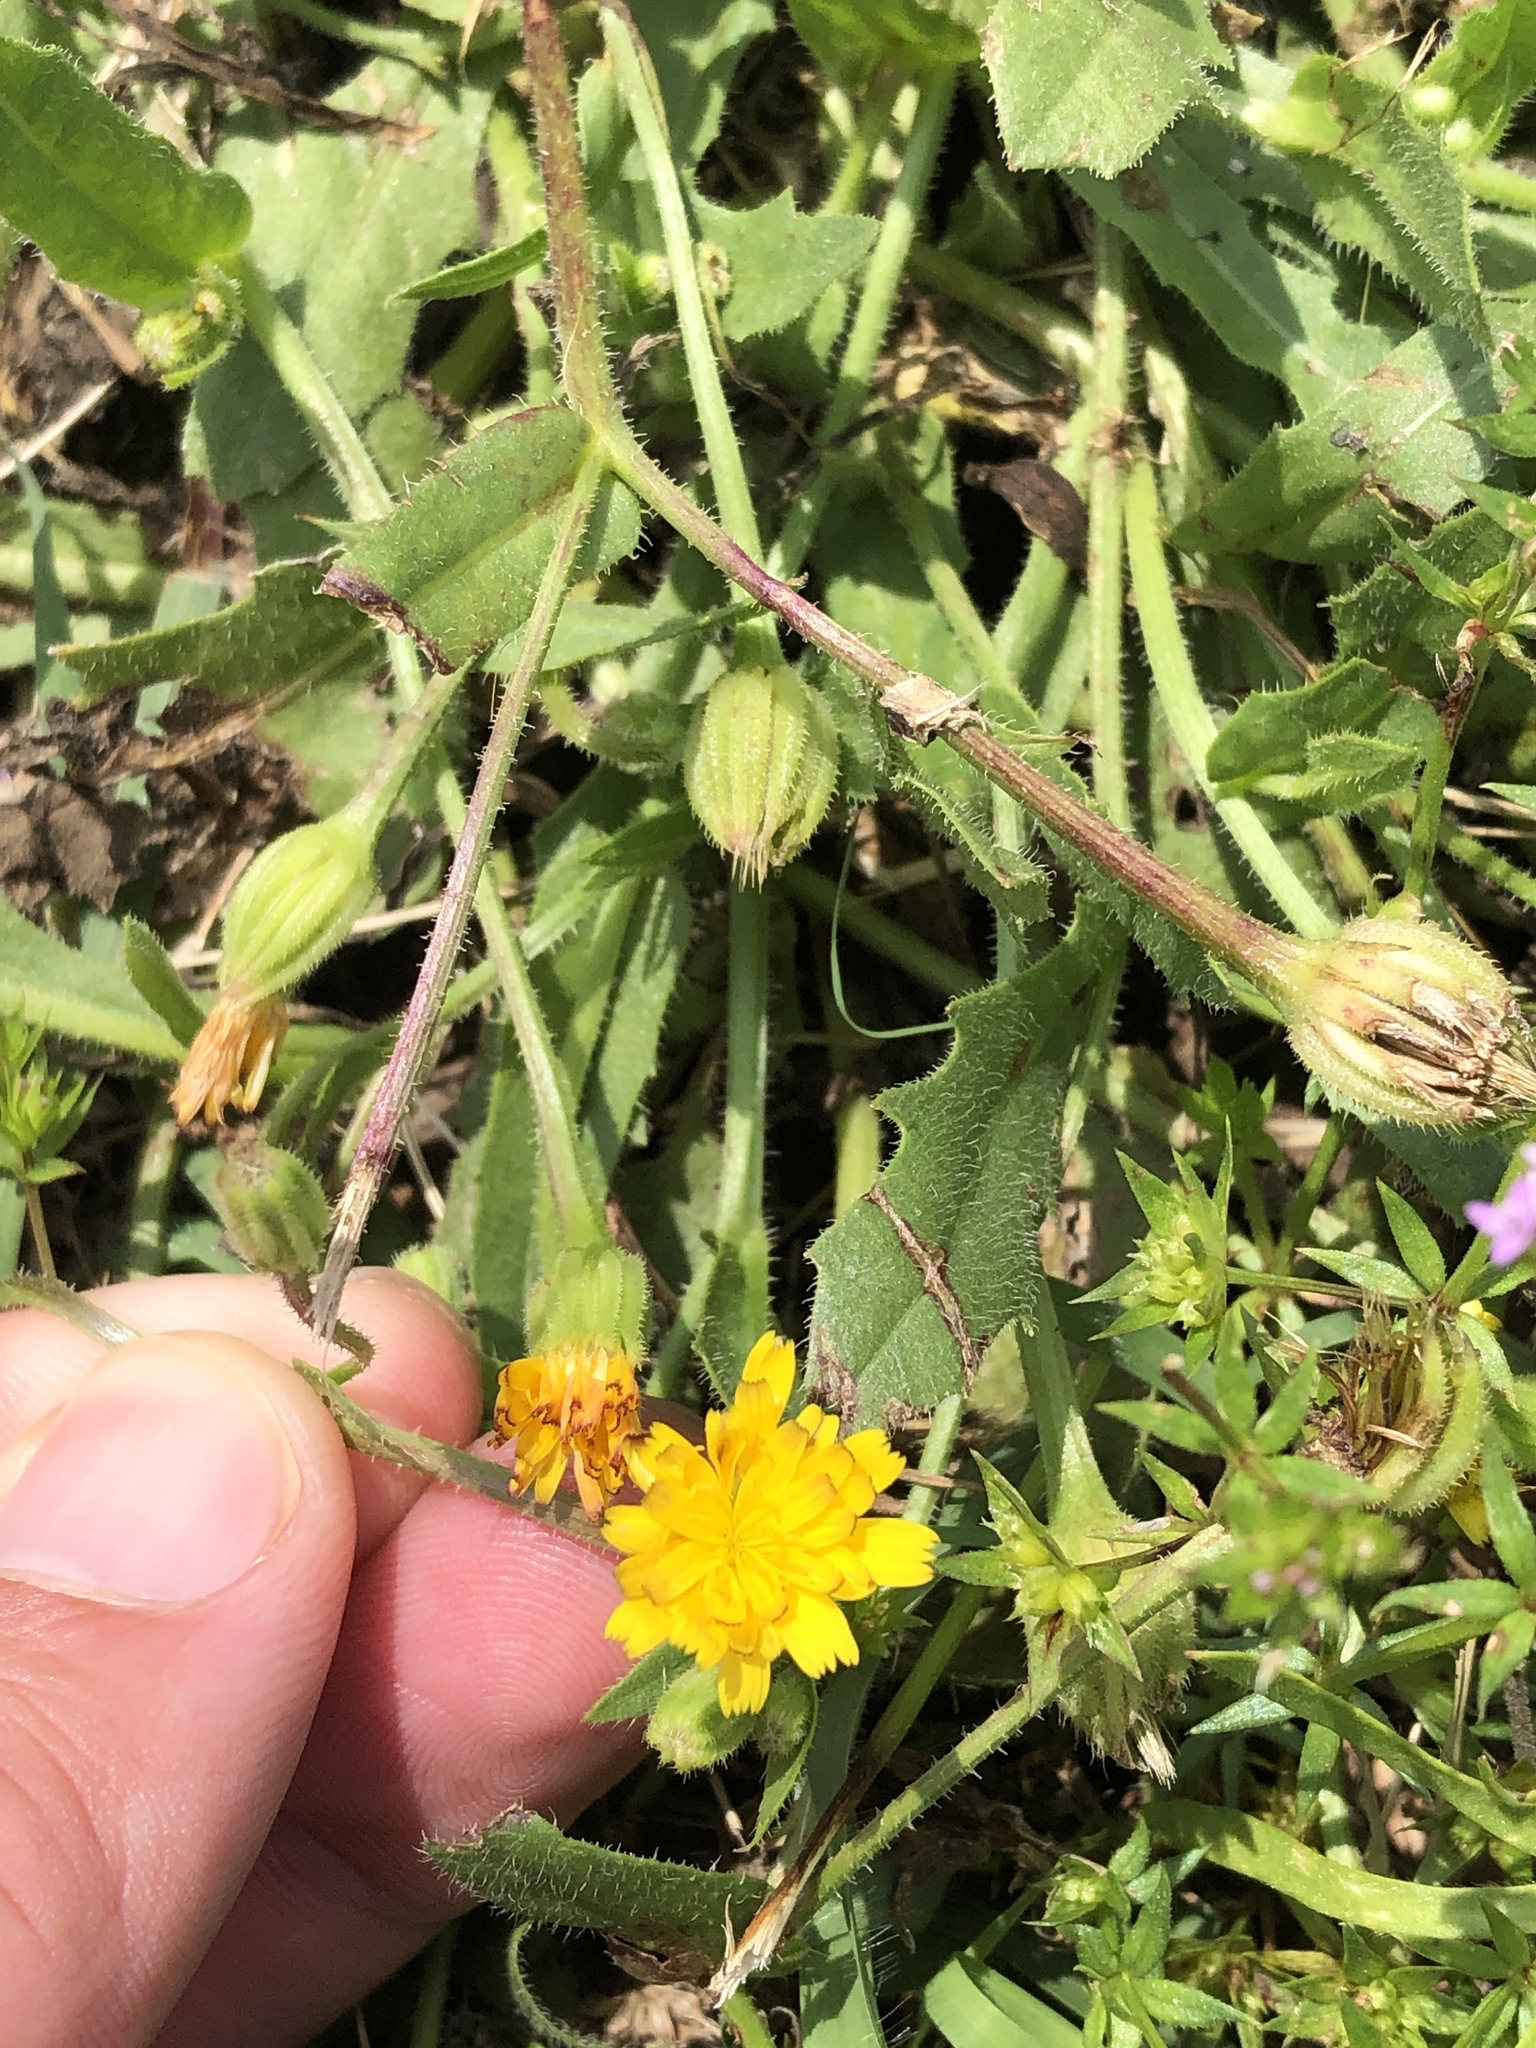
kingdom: Plantae
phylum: Tracheophyta
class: Magnoliopsida
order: Asterales
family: Asteraceae
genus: Hedypnois
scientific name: Hedypnois rhagadioloides
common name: Cretan weed
